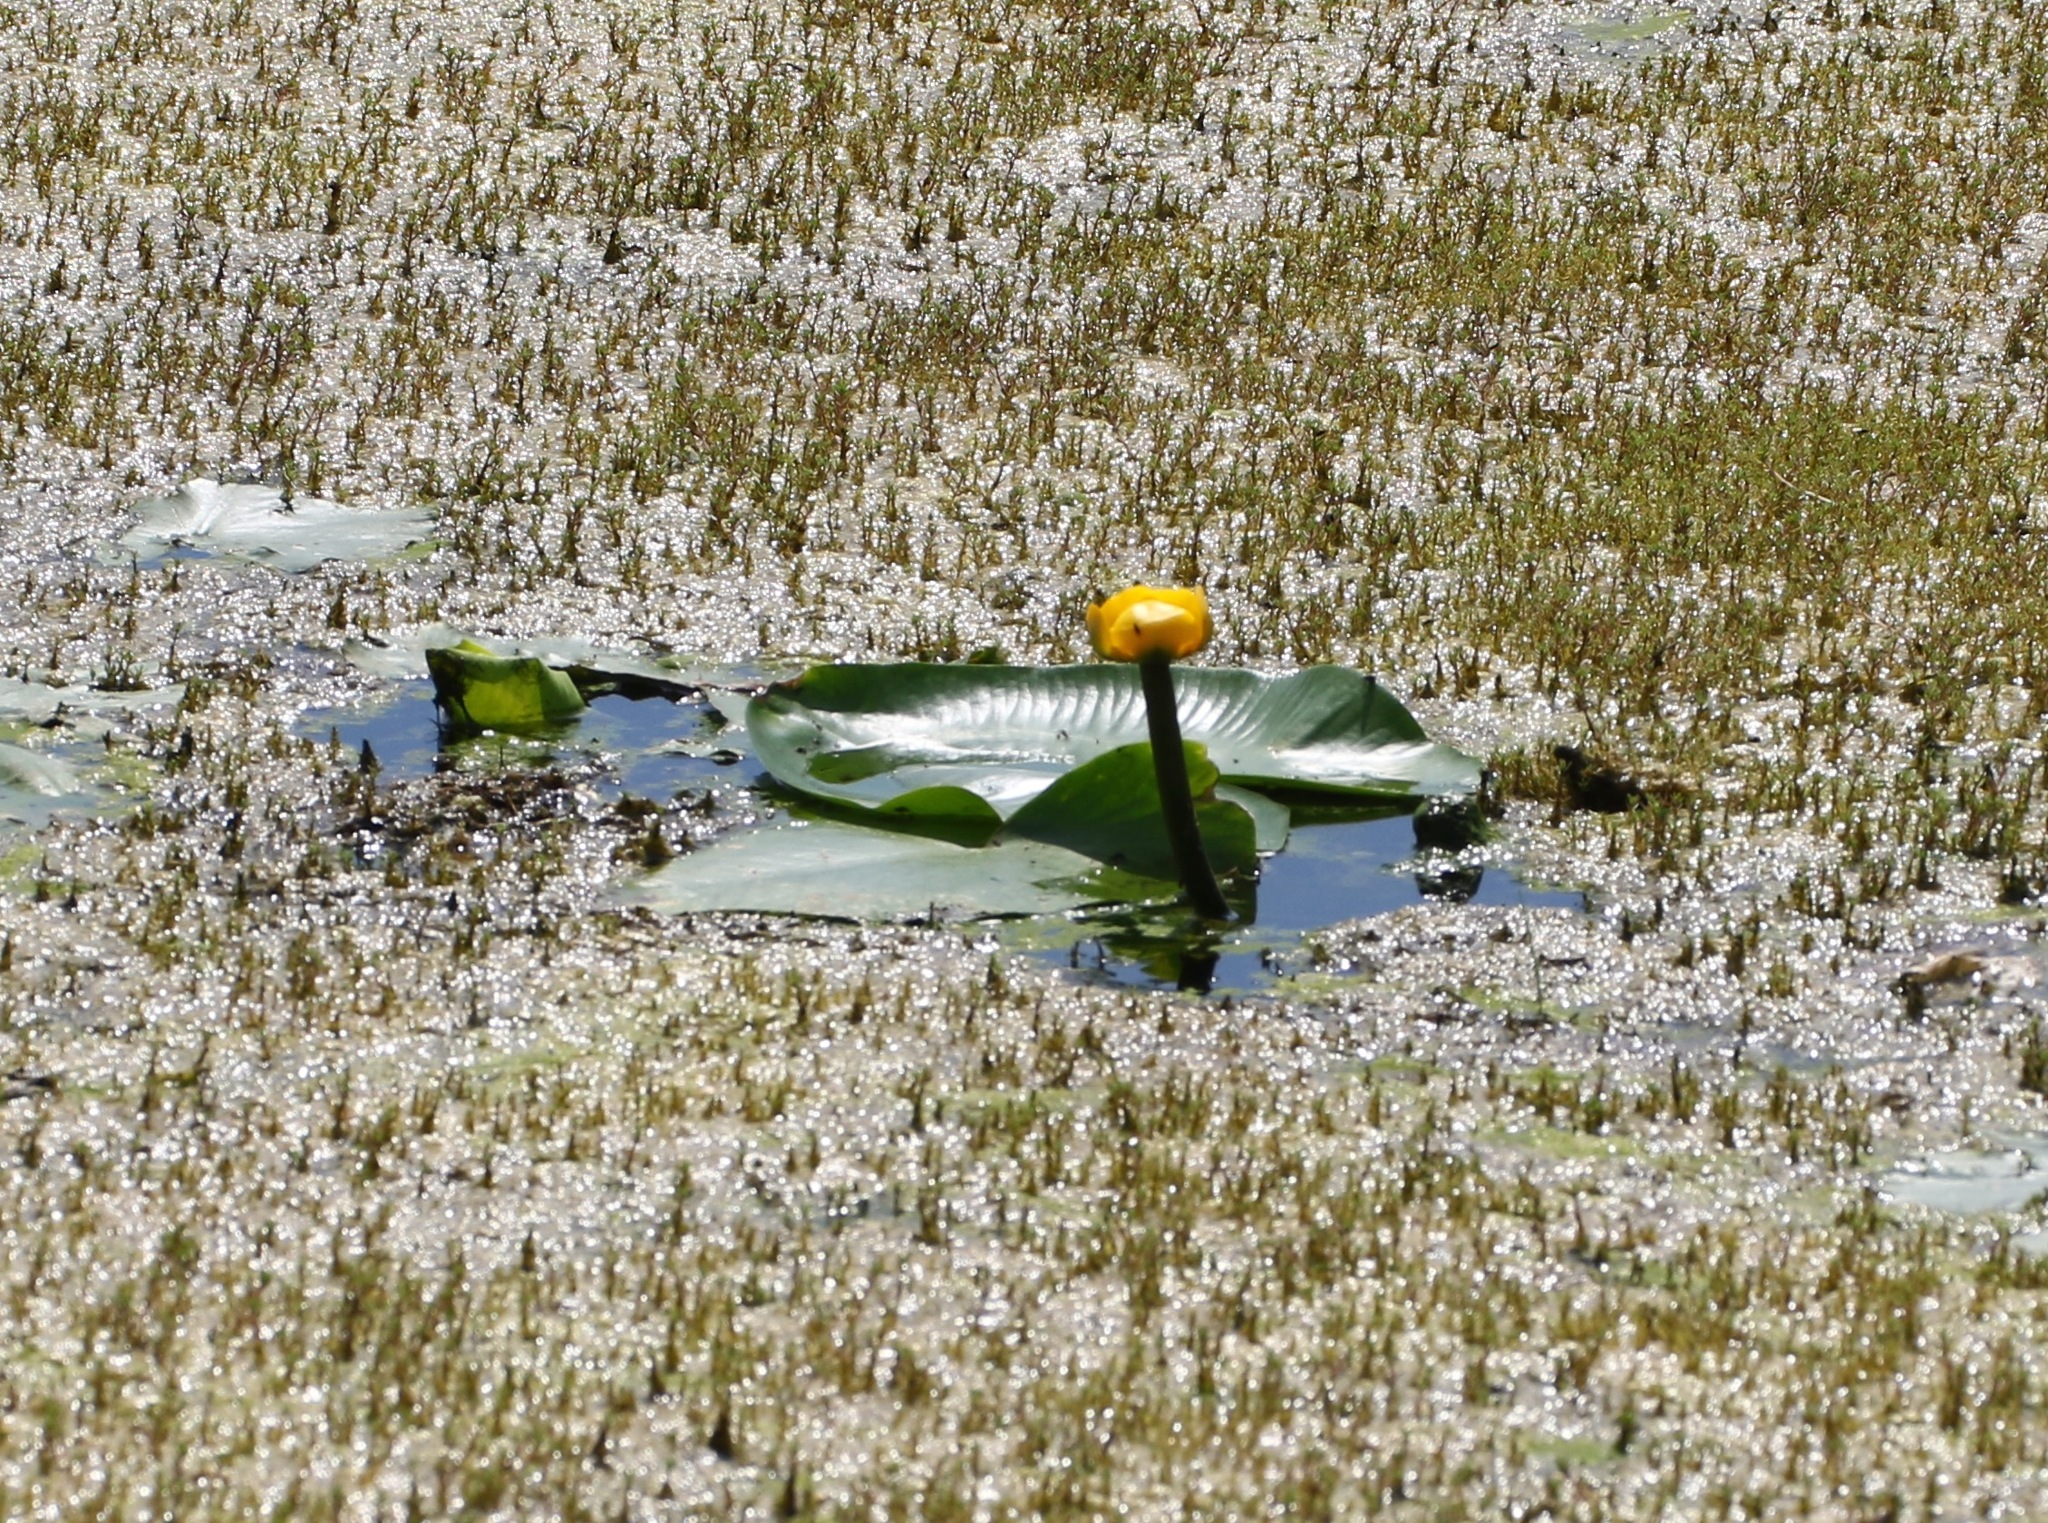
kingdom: Plantae
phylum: Tracheophyta
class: Magnoliopsida
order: Nymphaeales
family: Nymphaeaceae
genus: Nuphar
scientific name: Nuphar lutea
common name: Yellow water-lily
